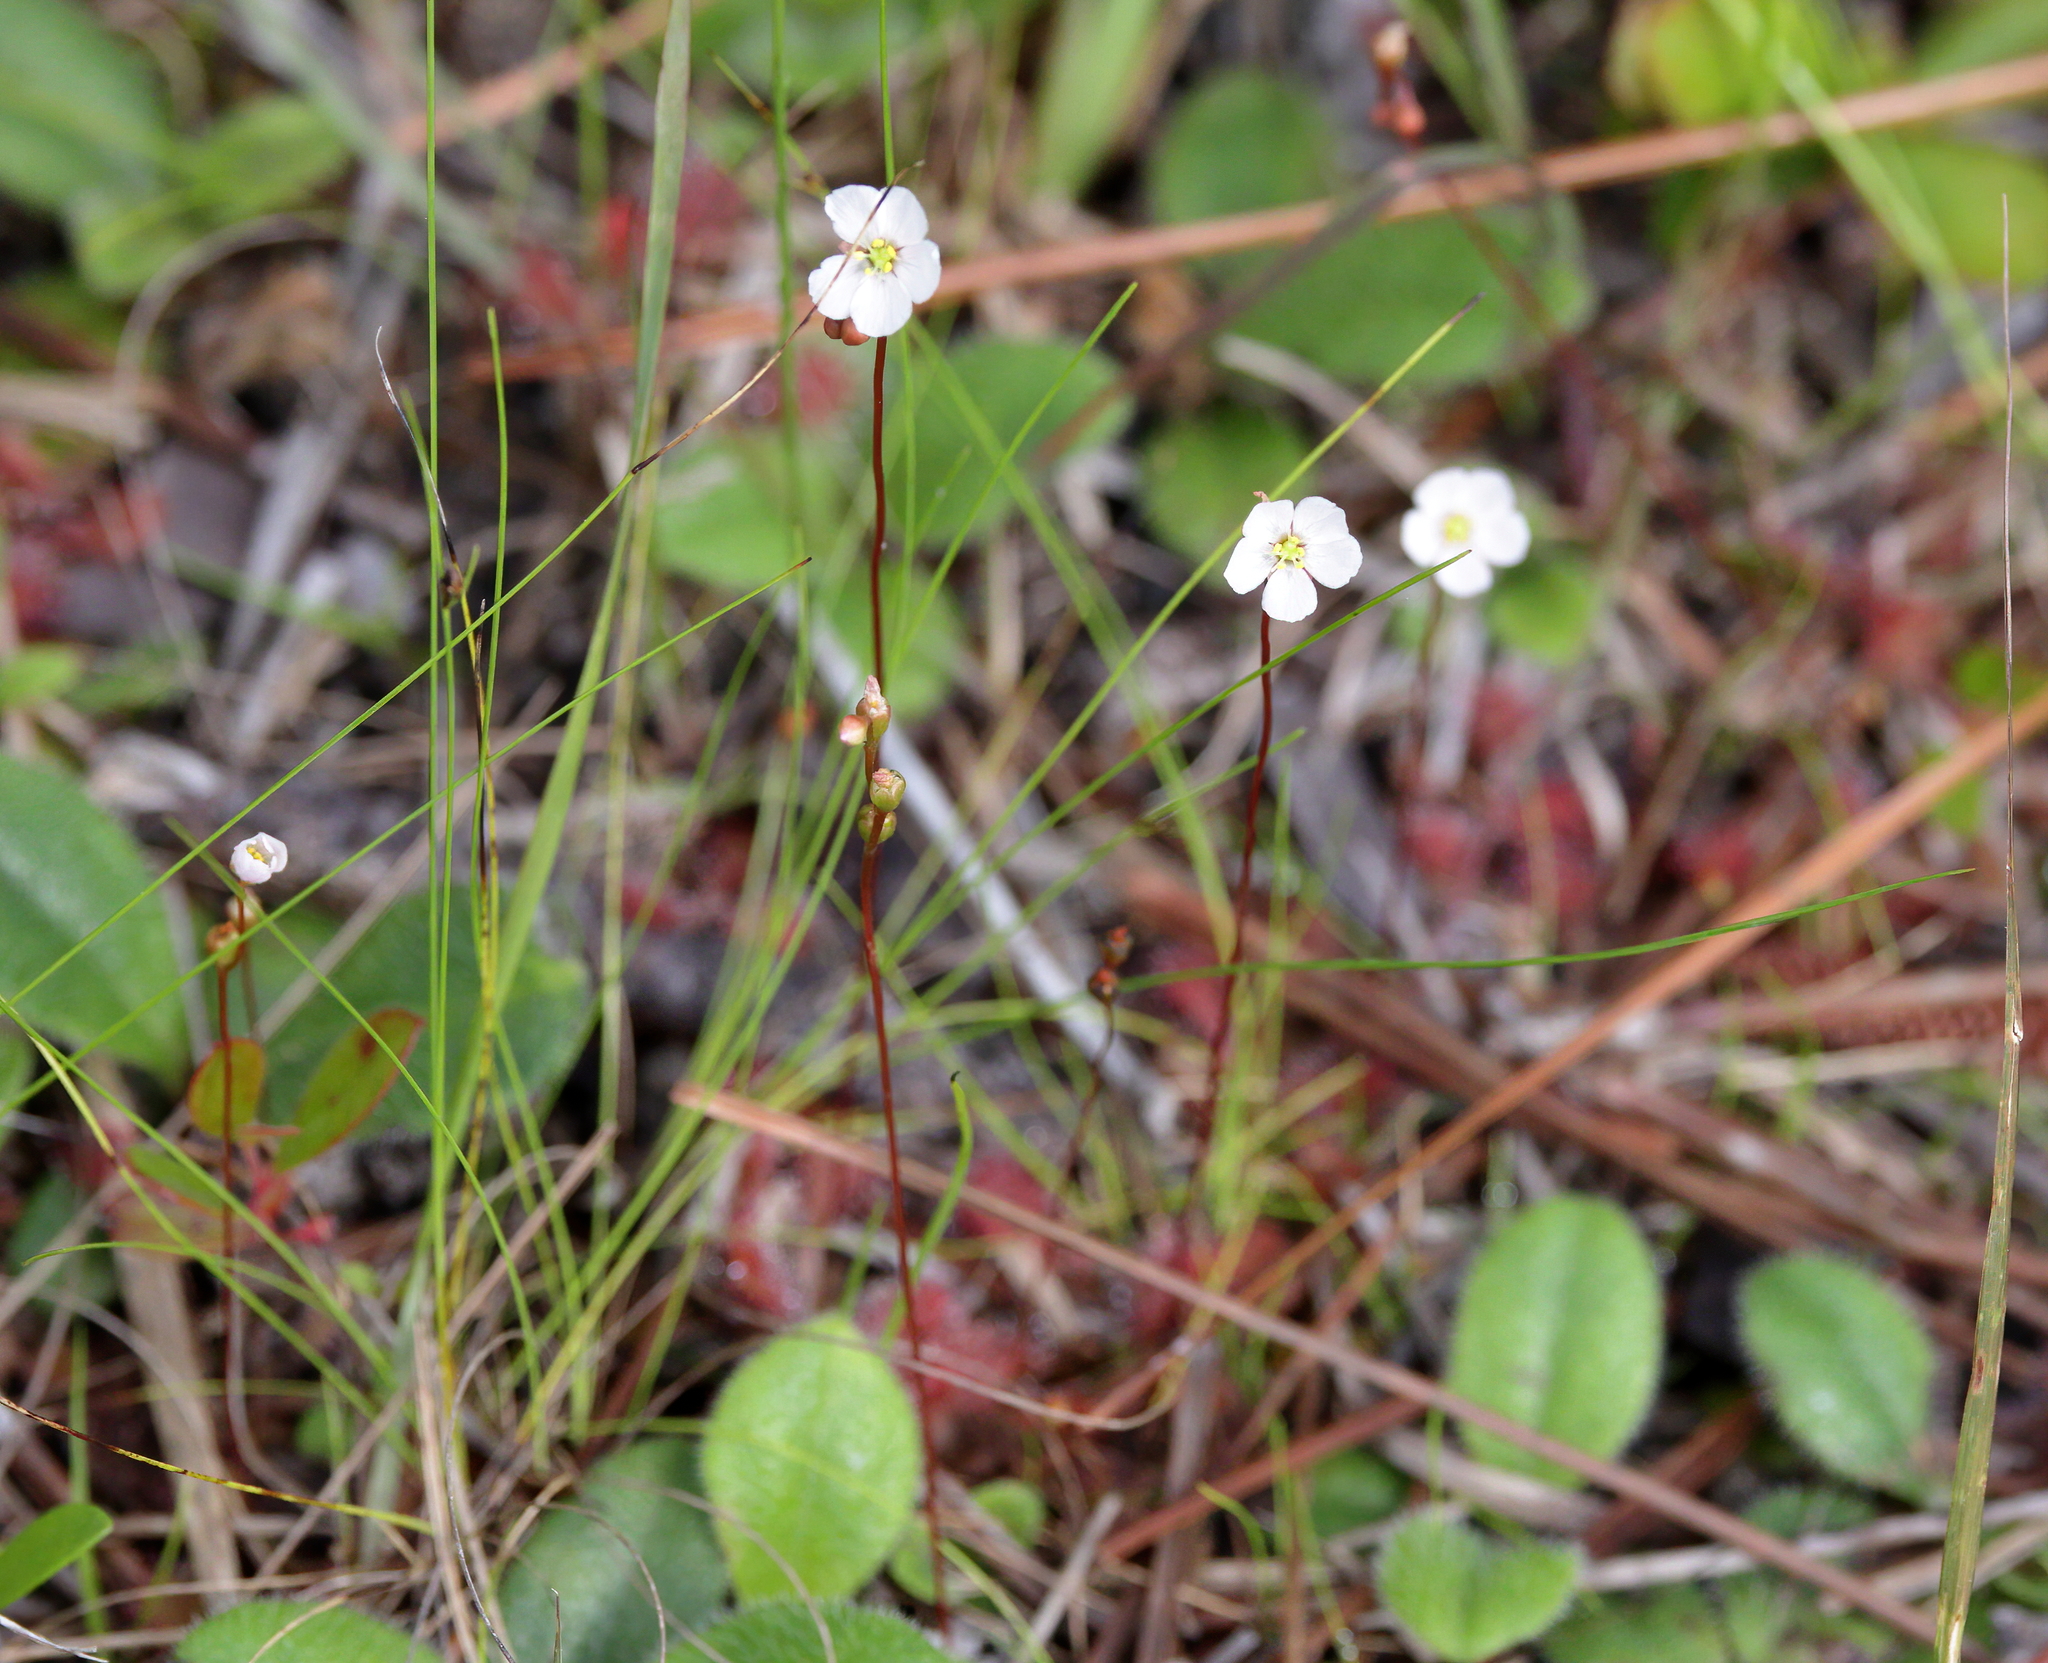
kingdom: Plantae
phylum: Tracheophyta
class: Magnoliopsida
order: Caryophyllales
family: Droseraceae
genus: Drosera
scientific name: Drosera capillaris
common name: Pink sundew
